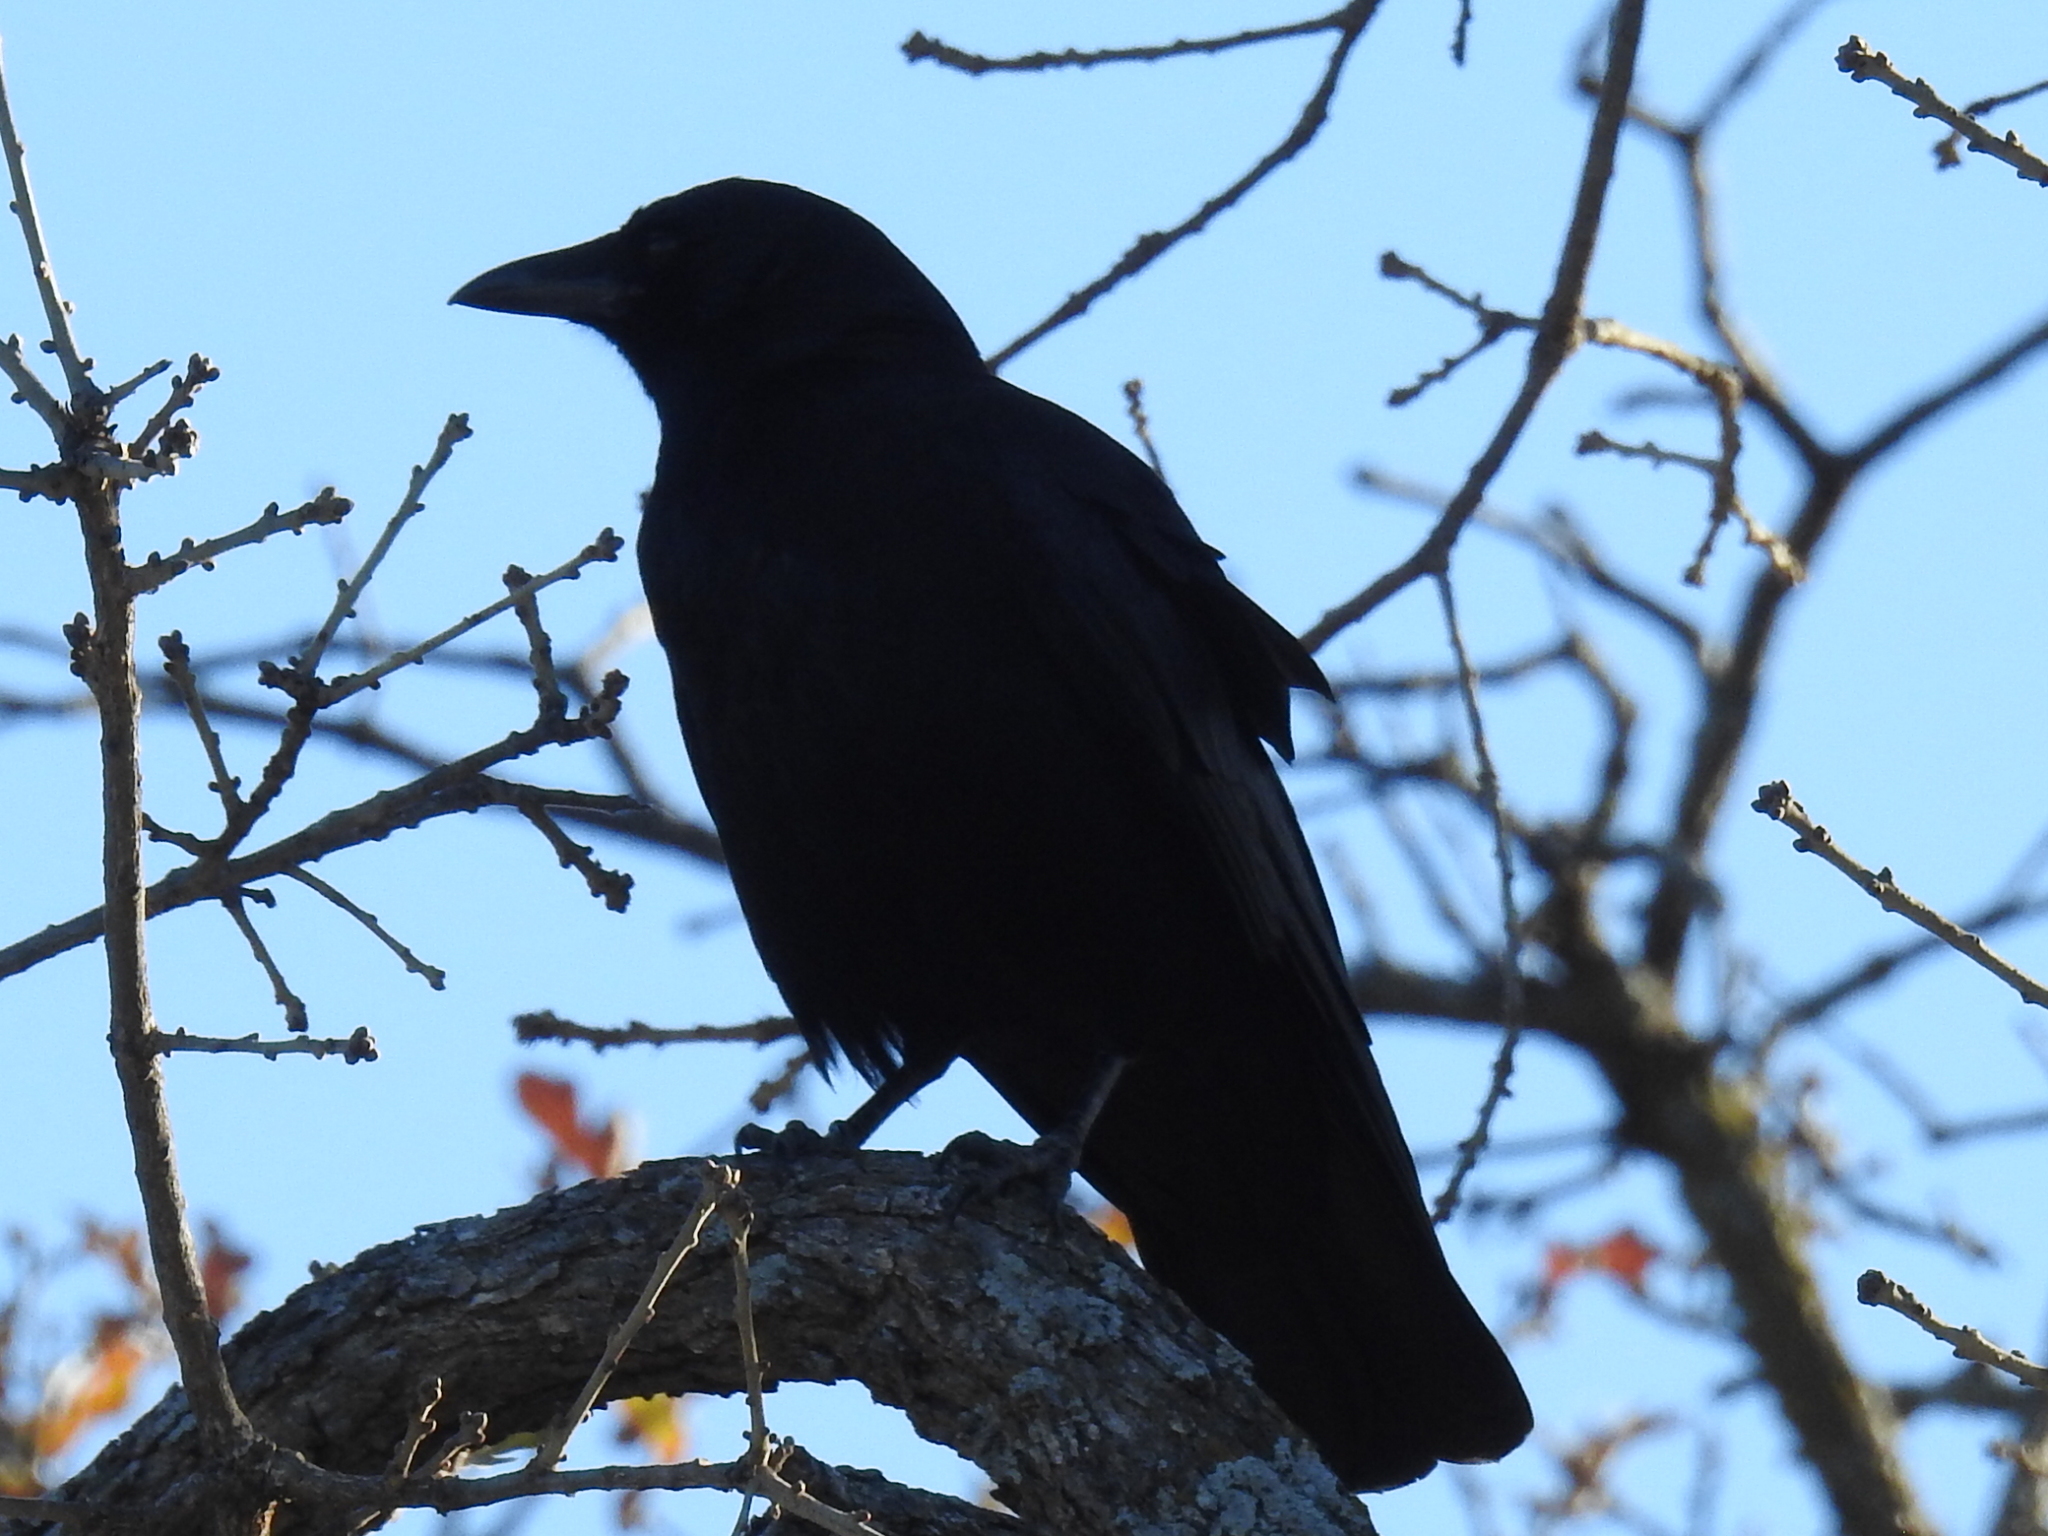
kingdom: Animalia
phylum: Chordata
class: Aves
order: Passeriformes
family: Corvidae
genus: Corvus
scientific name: Corvus brachyrhynchos
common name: American crow
